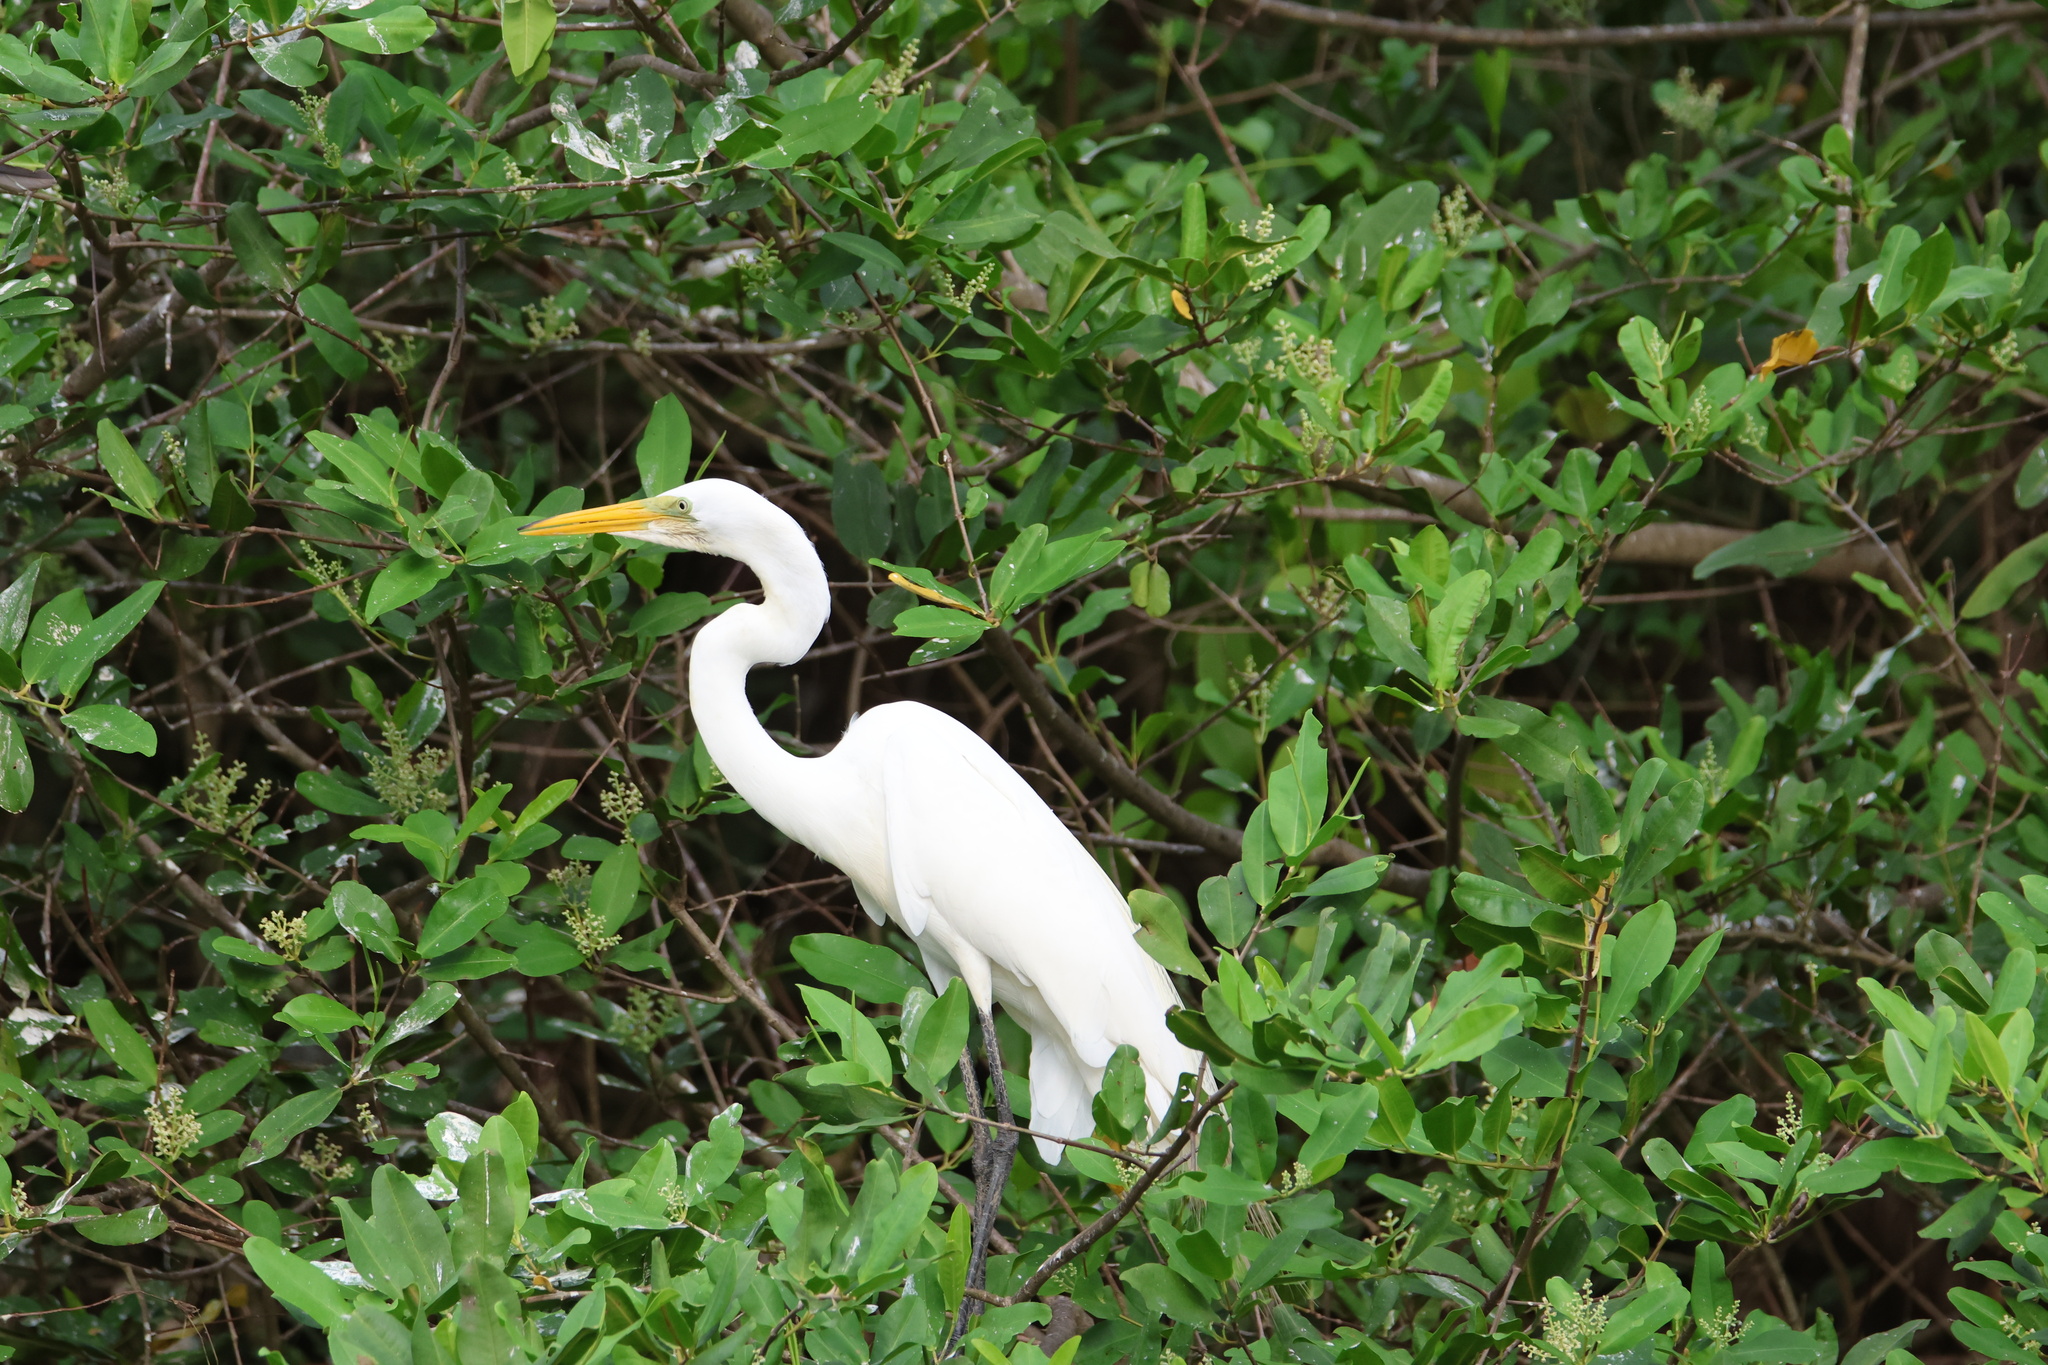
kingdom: Animalia
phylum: Chordata
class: Aves
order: Pelecaniformes
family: Ardeidae
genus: Ardea
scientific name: Ardea alba
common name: Great egret
